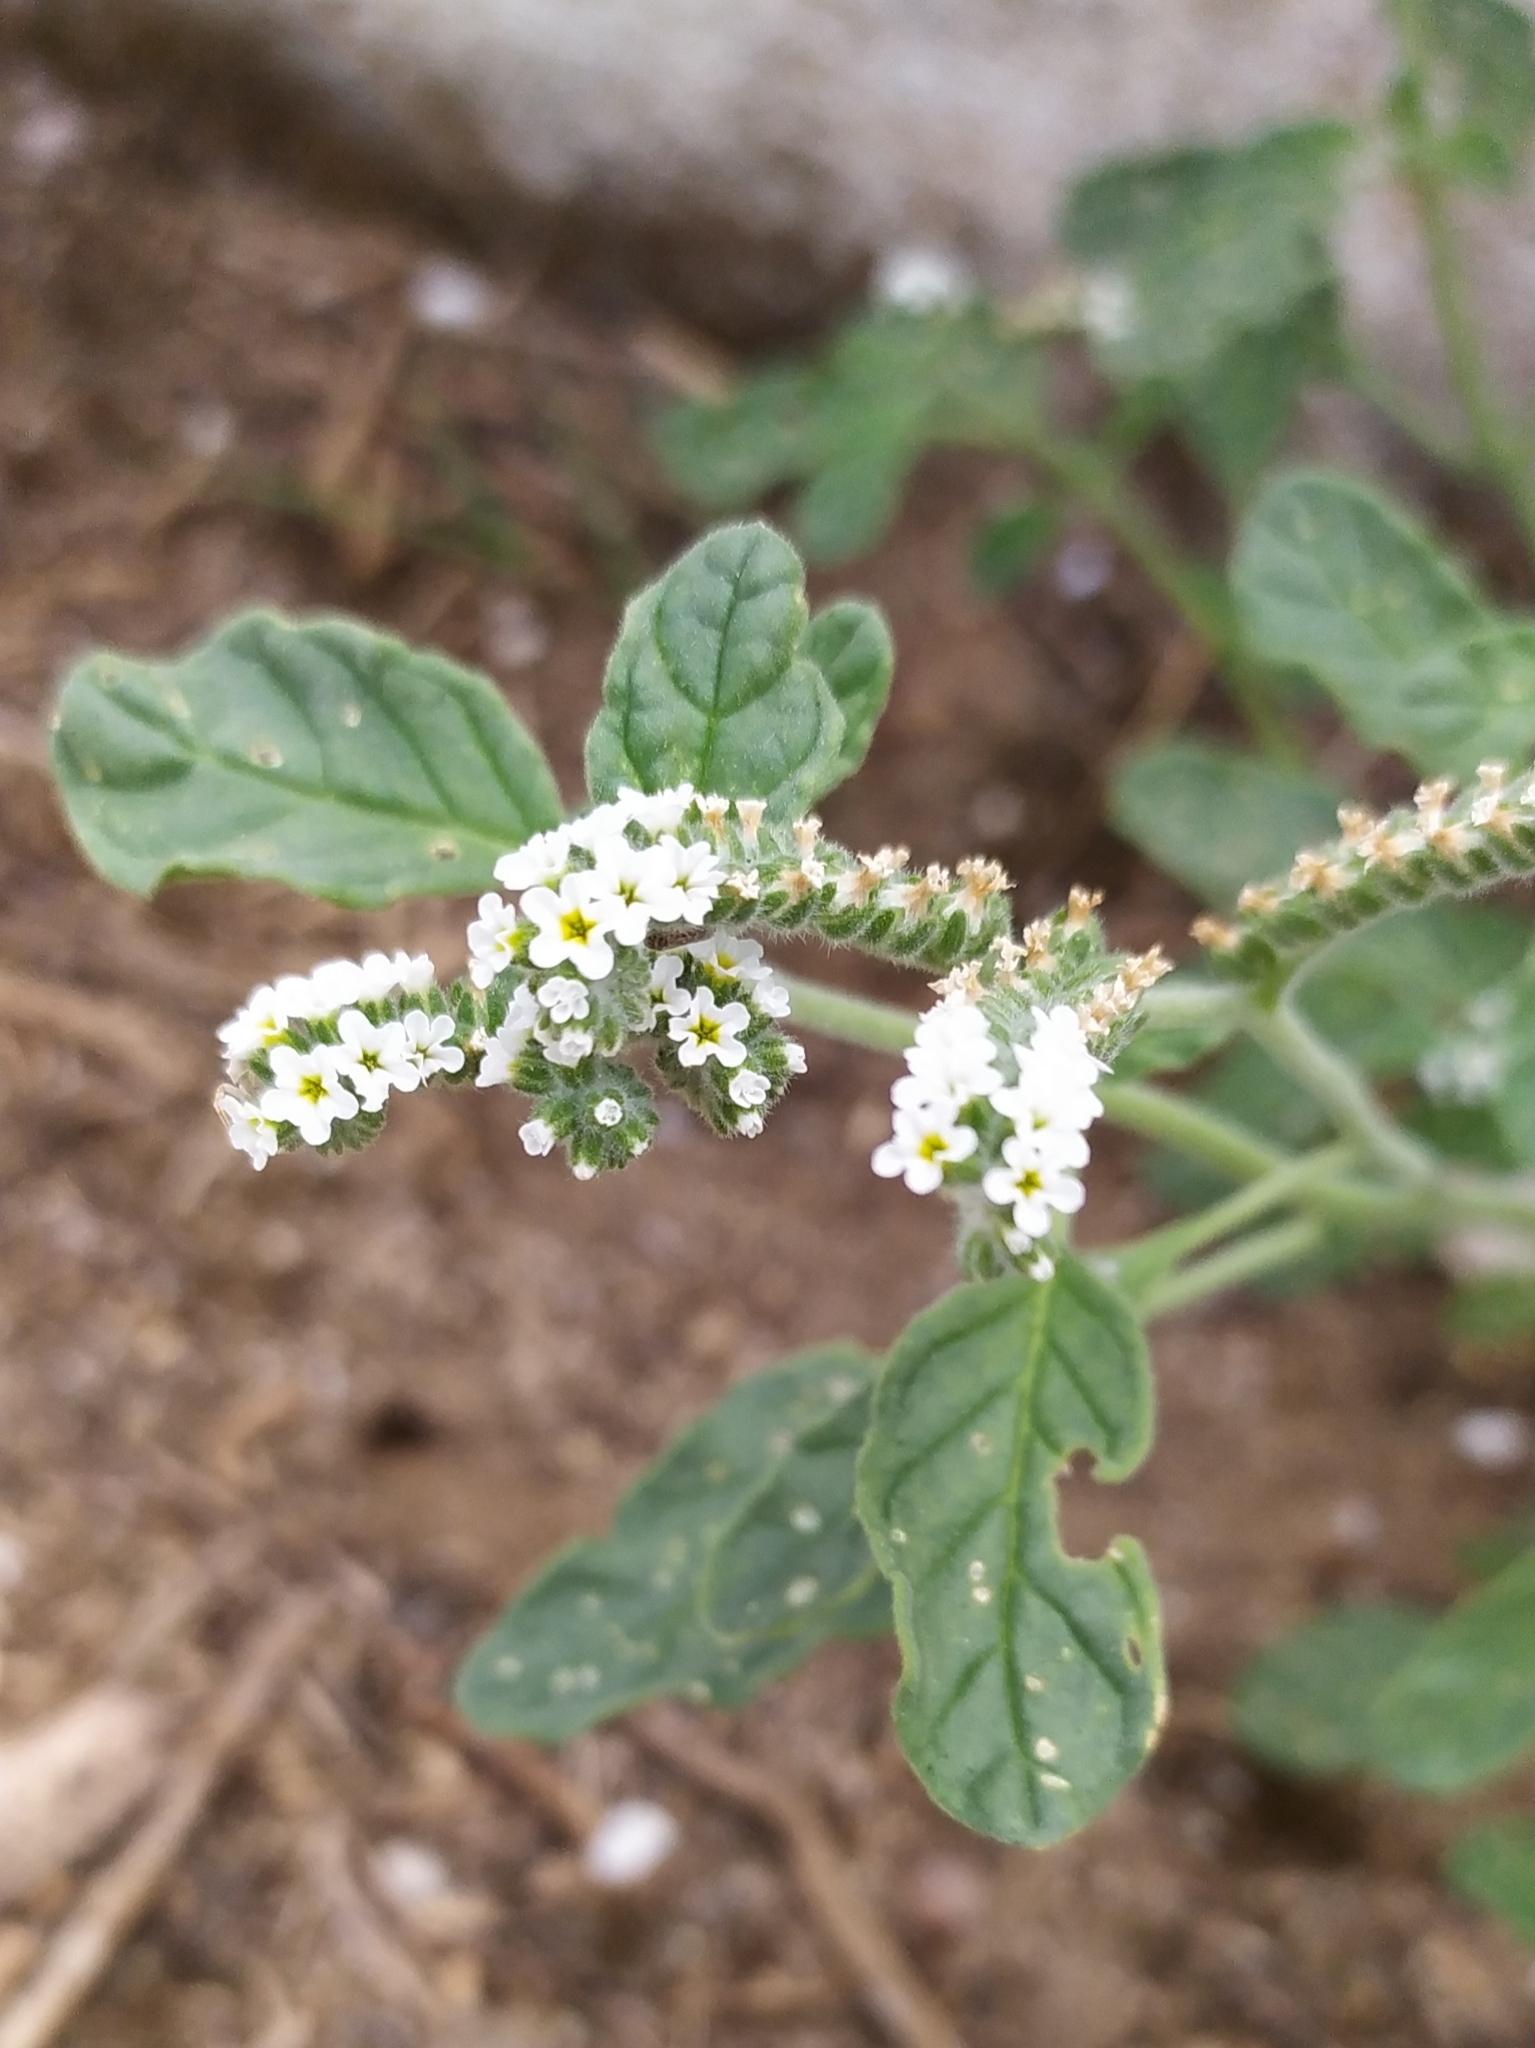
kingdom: Plantae
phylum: Tracheophyta
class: Magnoliopsida
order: Boraginales
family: Heliotropiaceae
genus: Heliotropium
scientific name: Heliotropium europaeum
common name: European heliotrope
